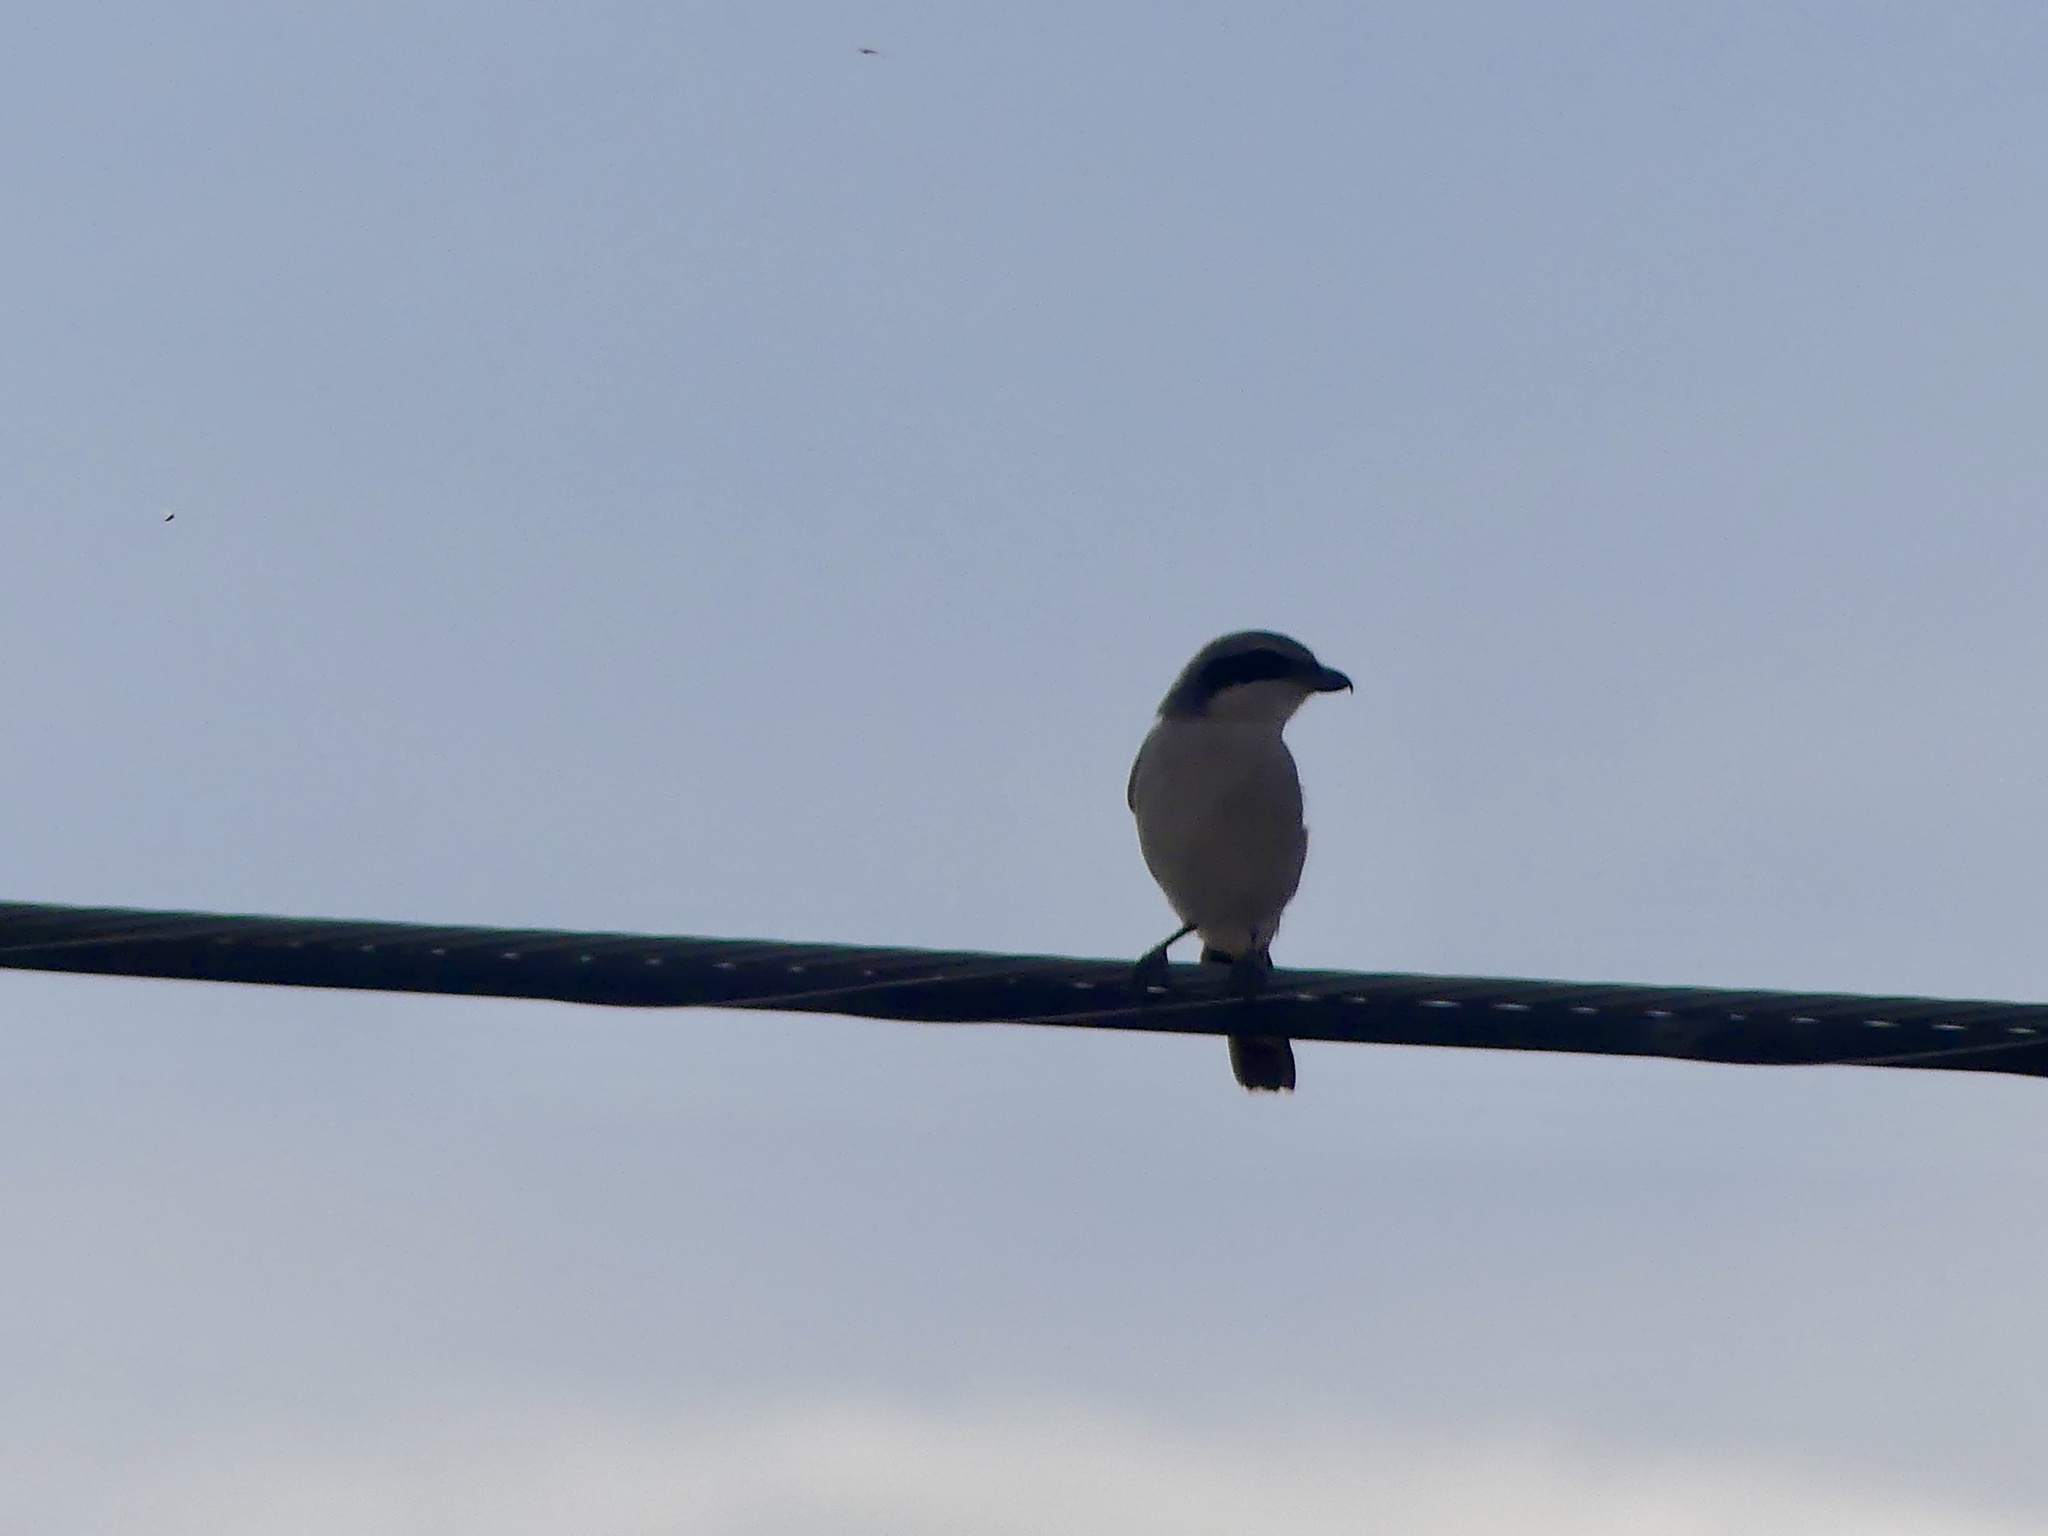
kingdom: Animalia
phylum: Chordata
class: Aves
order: Passeriformes
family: Laniidae
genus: Lanius
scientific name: Lanius ludovicianus
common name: Loggerhead shrike
